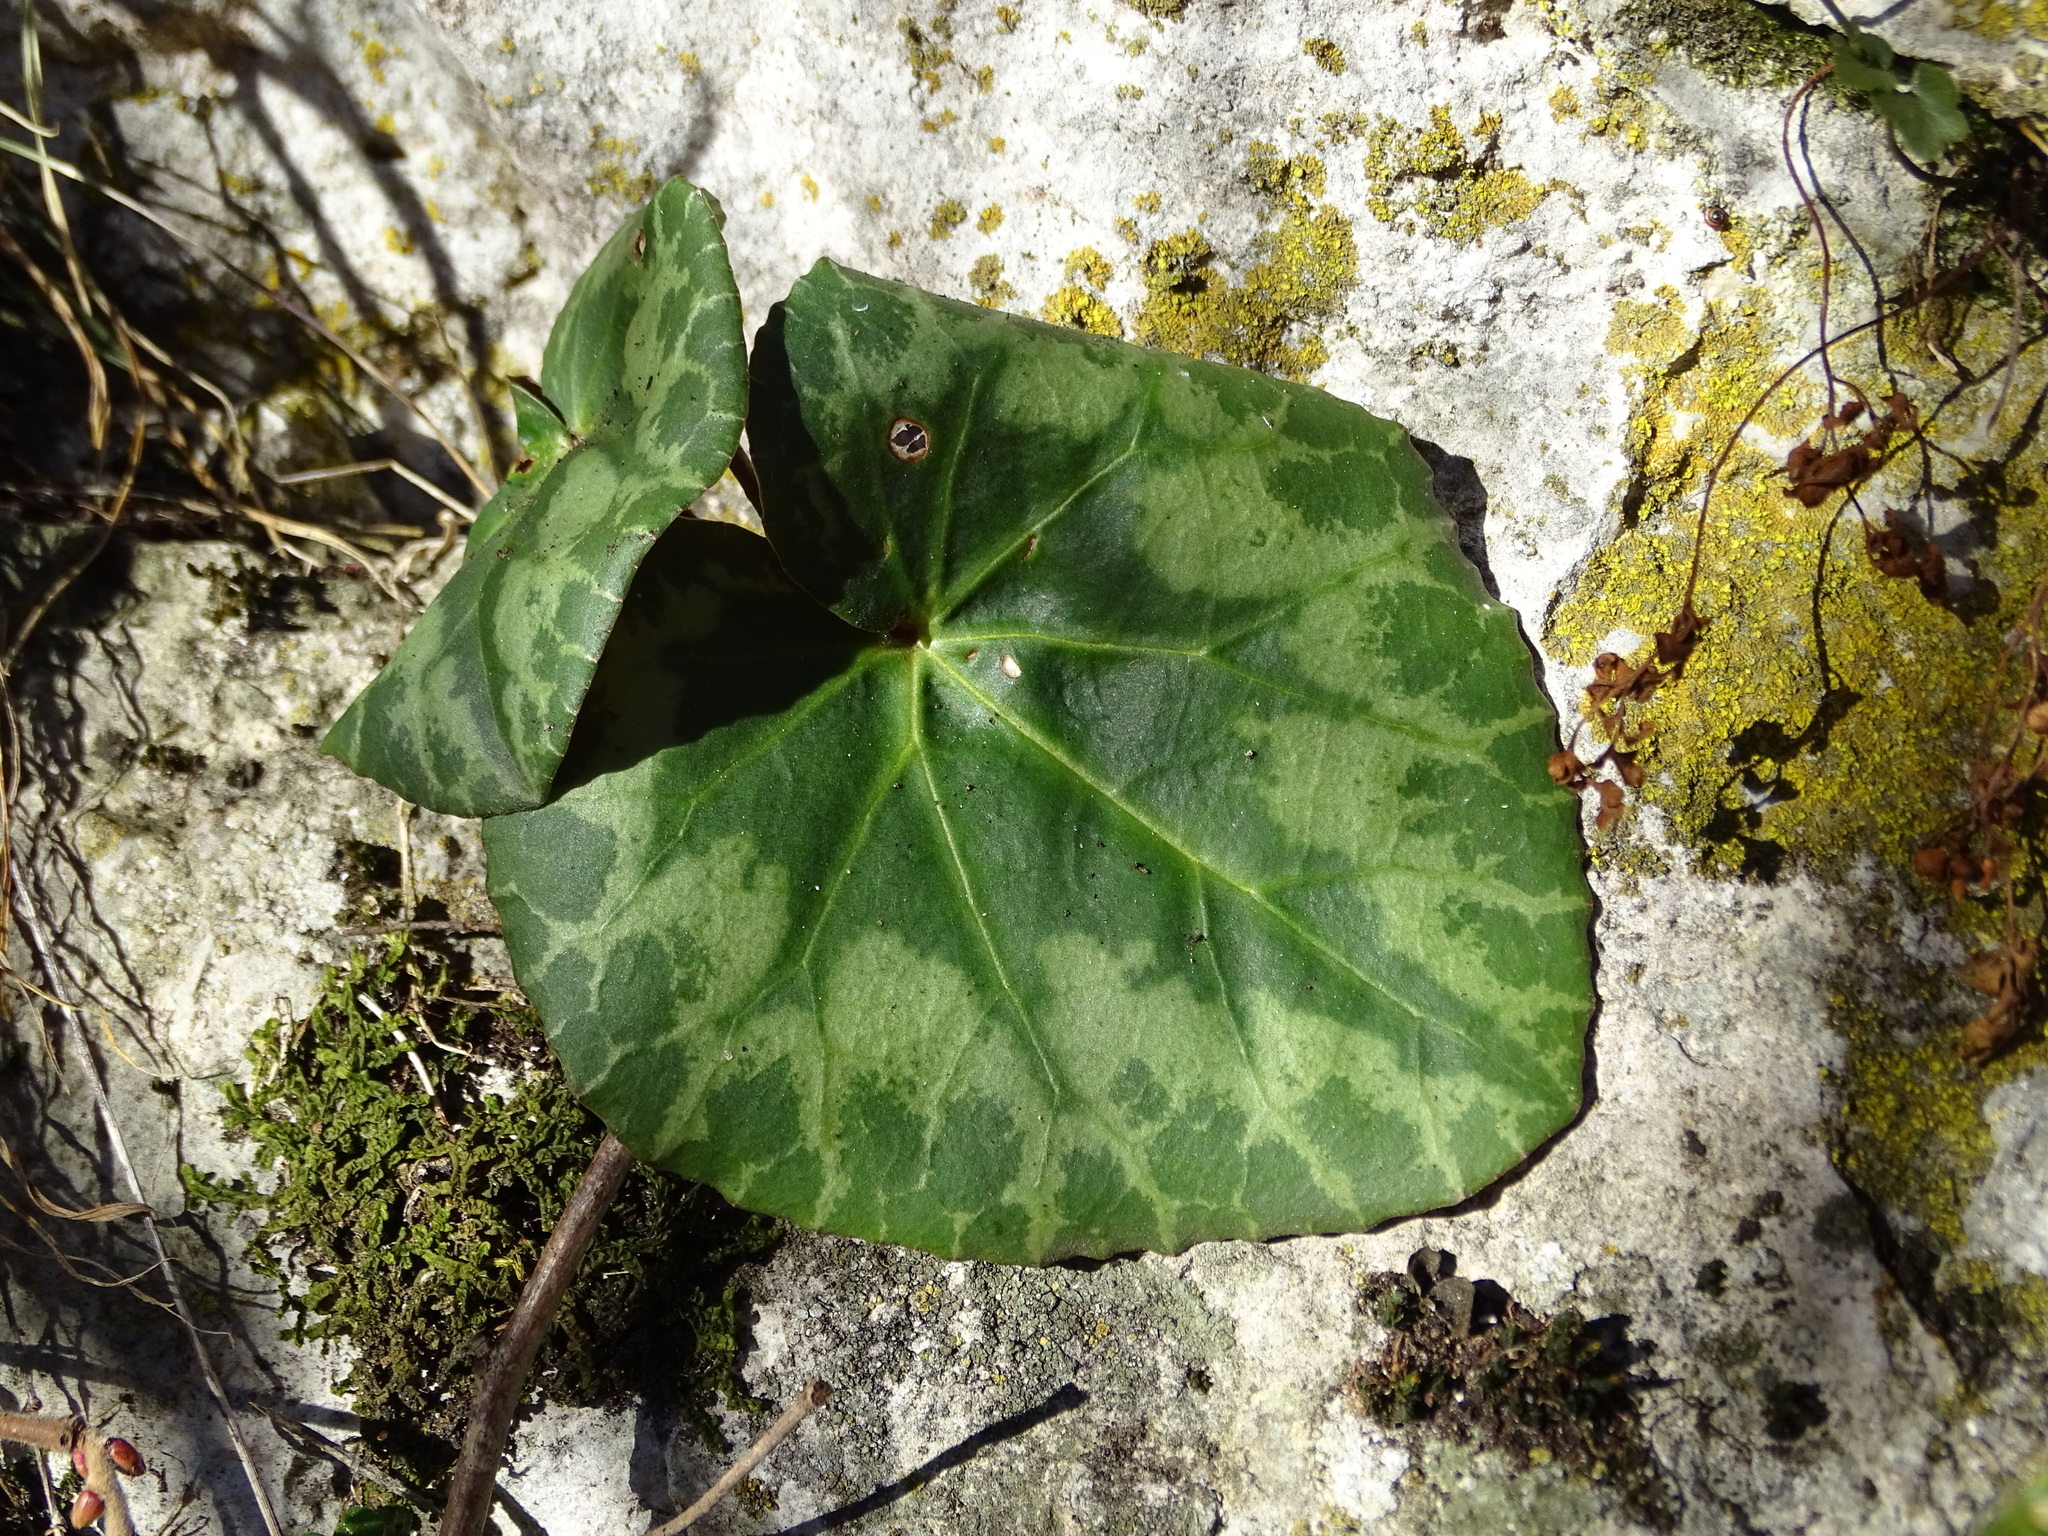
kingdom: Plantae
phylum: Tracheophyta
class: Magnoliopsida
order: Ericales
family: Primulaceae
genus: Cyclamen
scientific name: Cyclamen purpurascens
